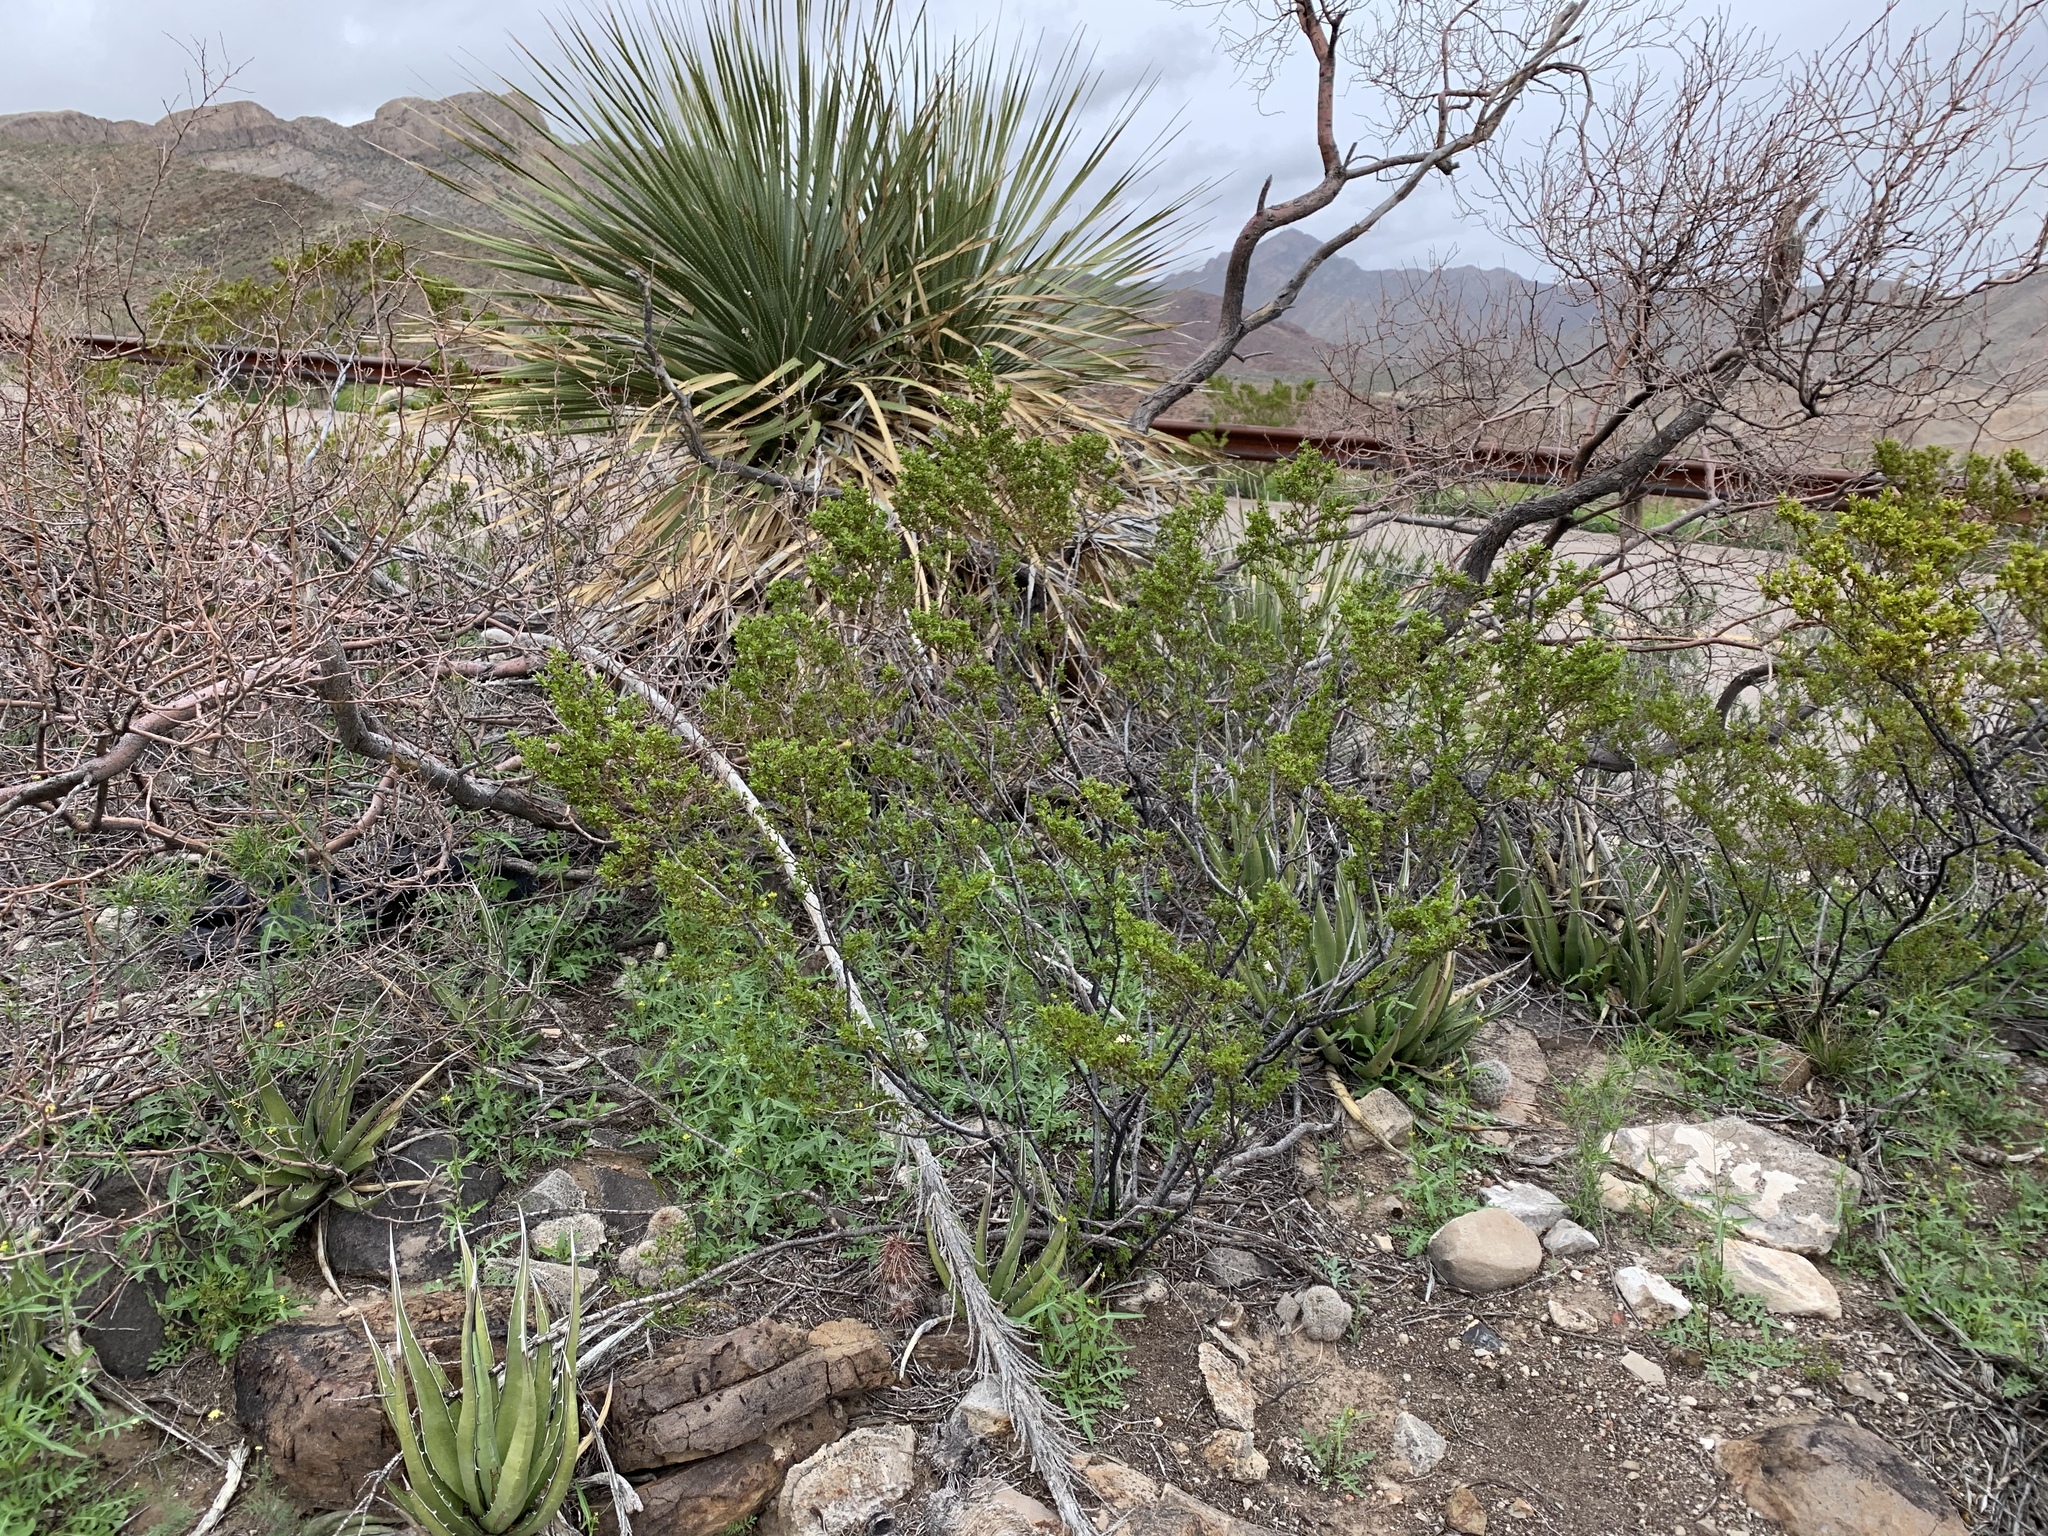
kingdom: Plantae
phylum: Tracheophyta
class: Magnoliopsida
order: Zygophyllales
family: Zygophyllaceae
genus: Larrea
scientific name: Larrea tridentata
